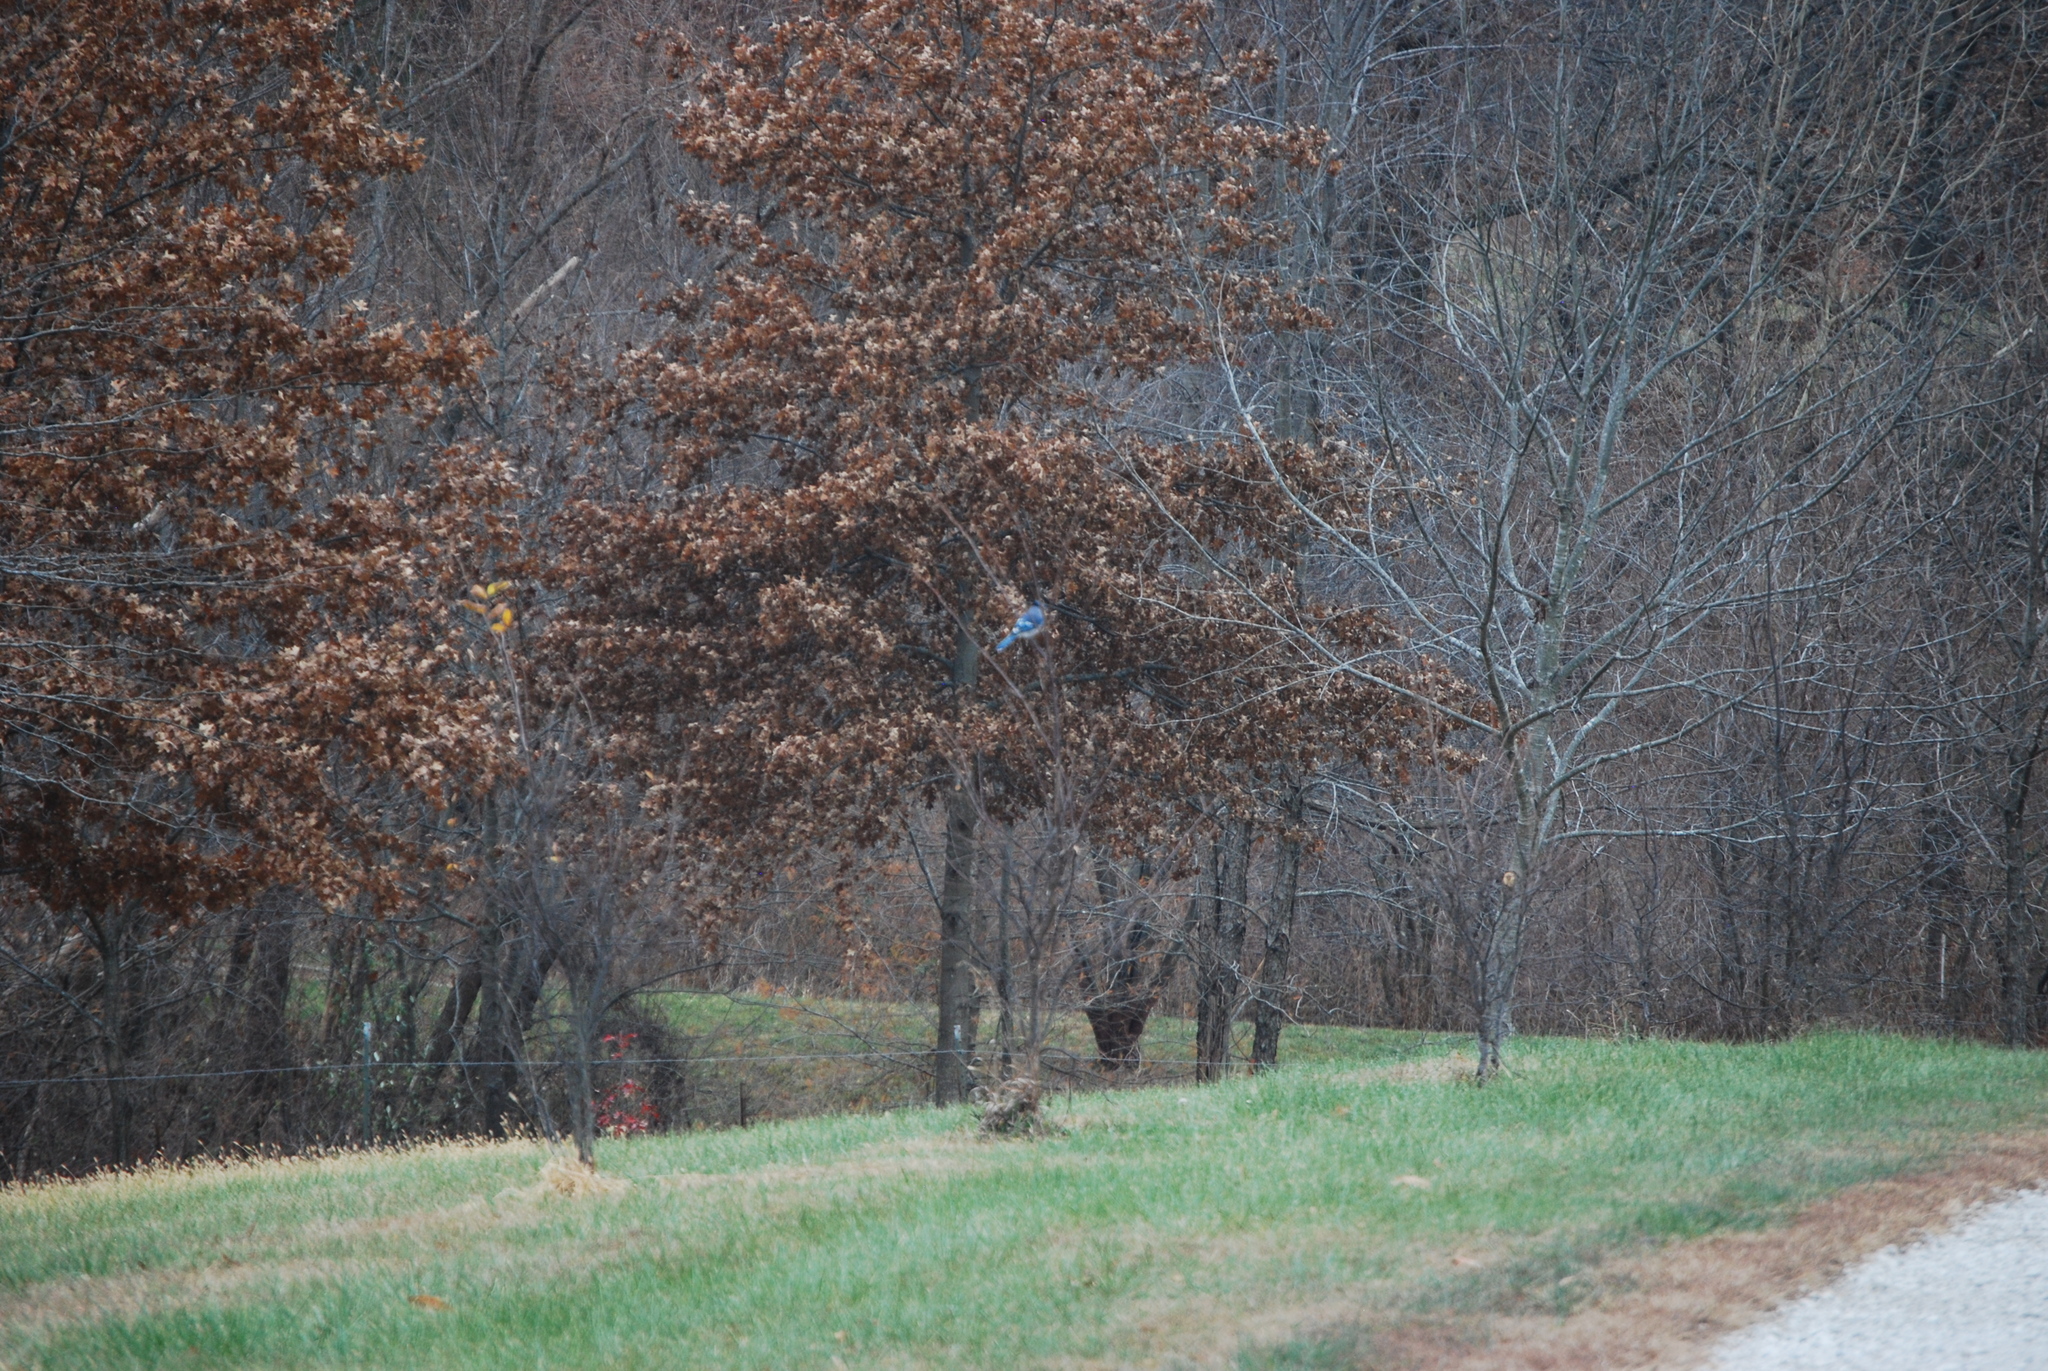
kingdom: Animalia
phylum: Chordata
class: Aves
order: Passeriformes
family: Corvidae
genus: Cyanocitta
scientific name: Cyanocitta cristata
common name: Blue jay
